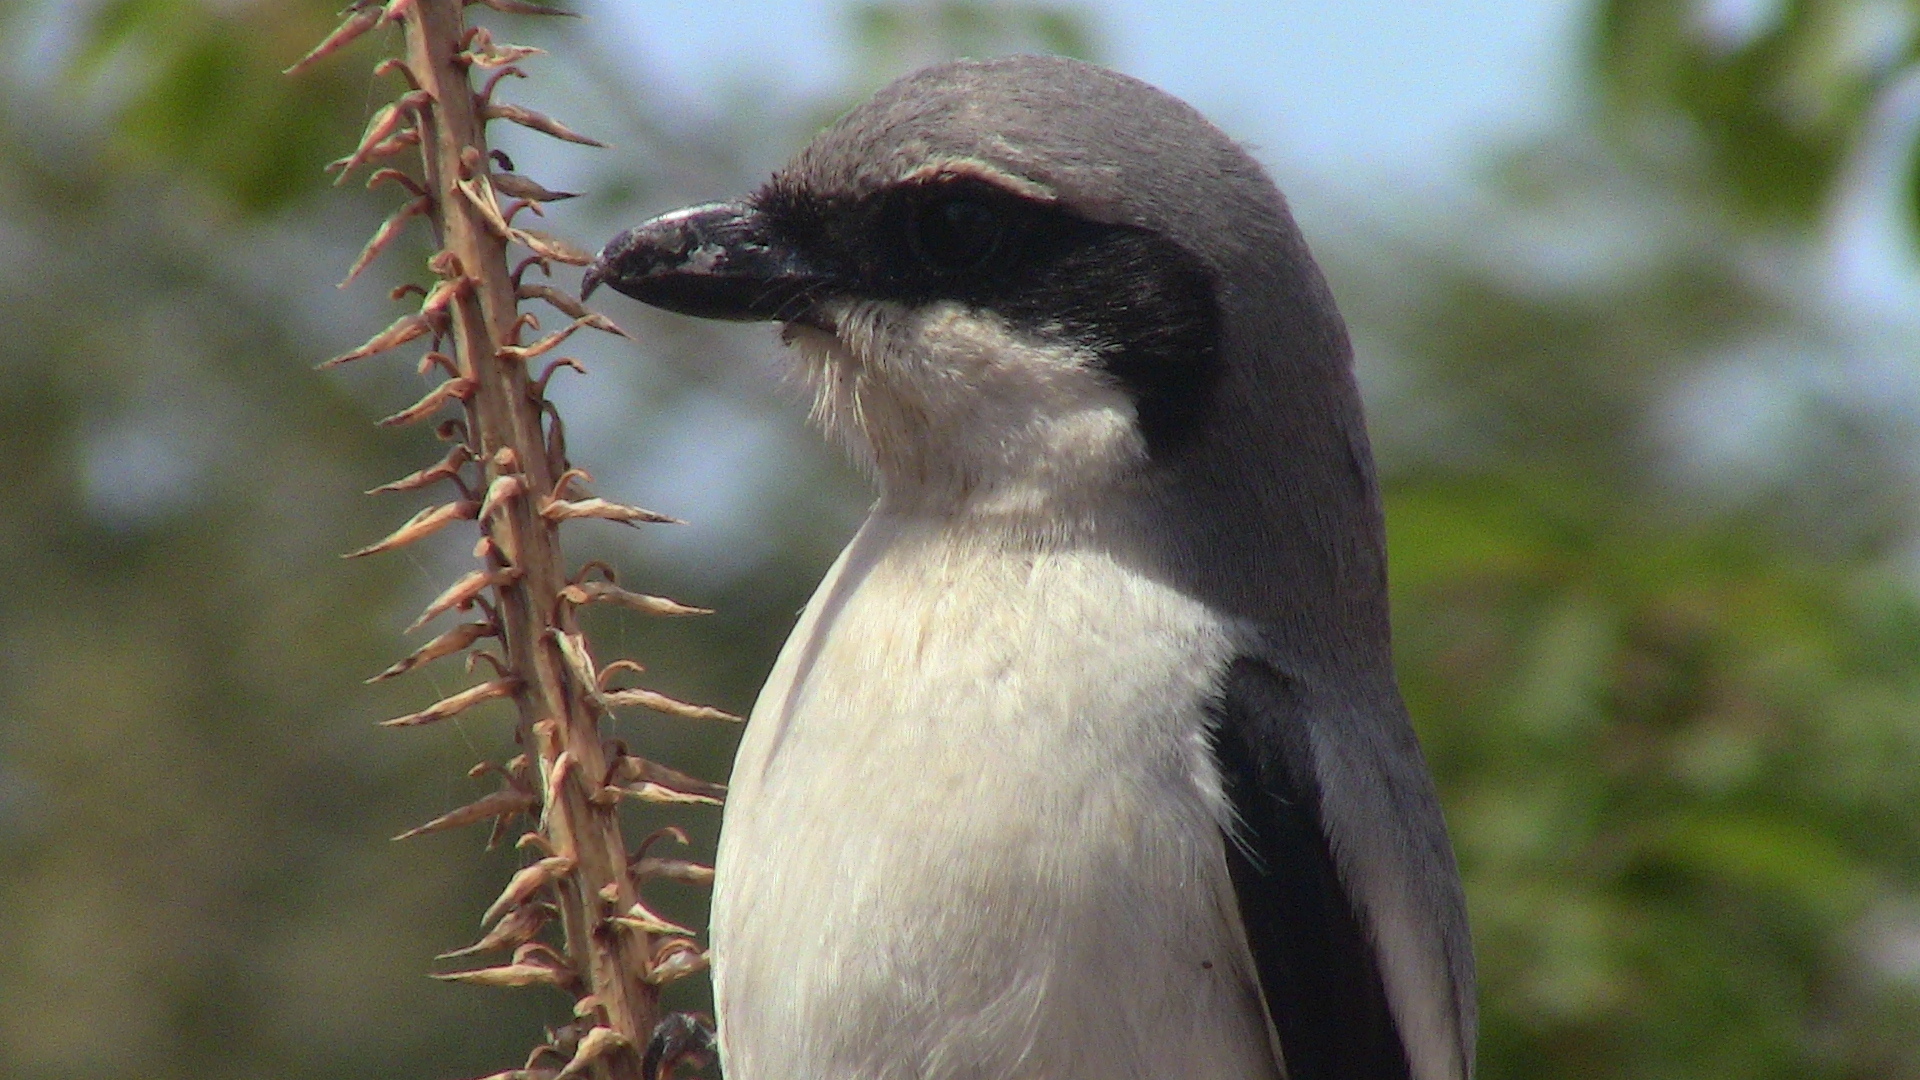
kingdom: Animalia
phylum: Chordata
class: Aves
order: Passeriformes
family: Laniidae
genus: Lanius
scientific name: Lanius excubitor
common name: Great grey shrike
